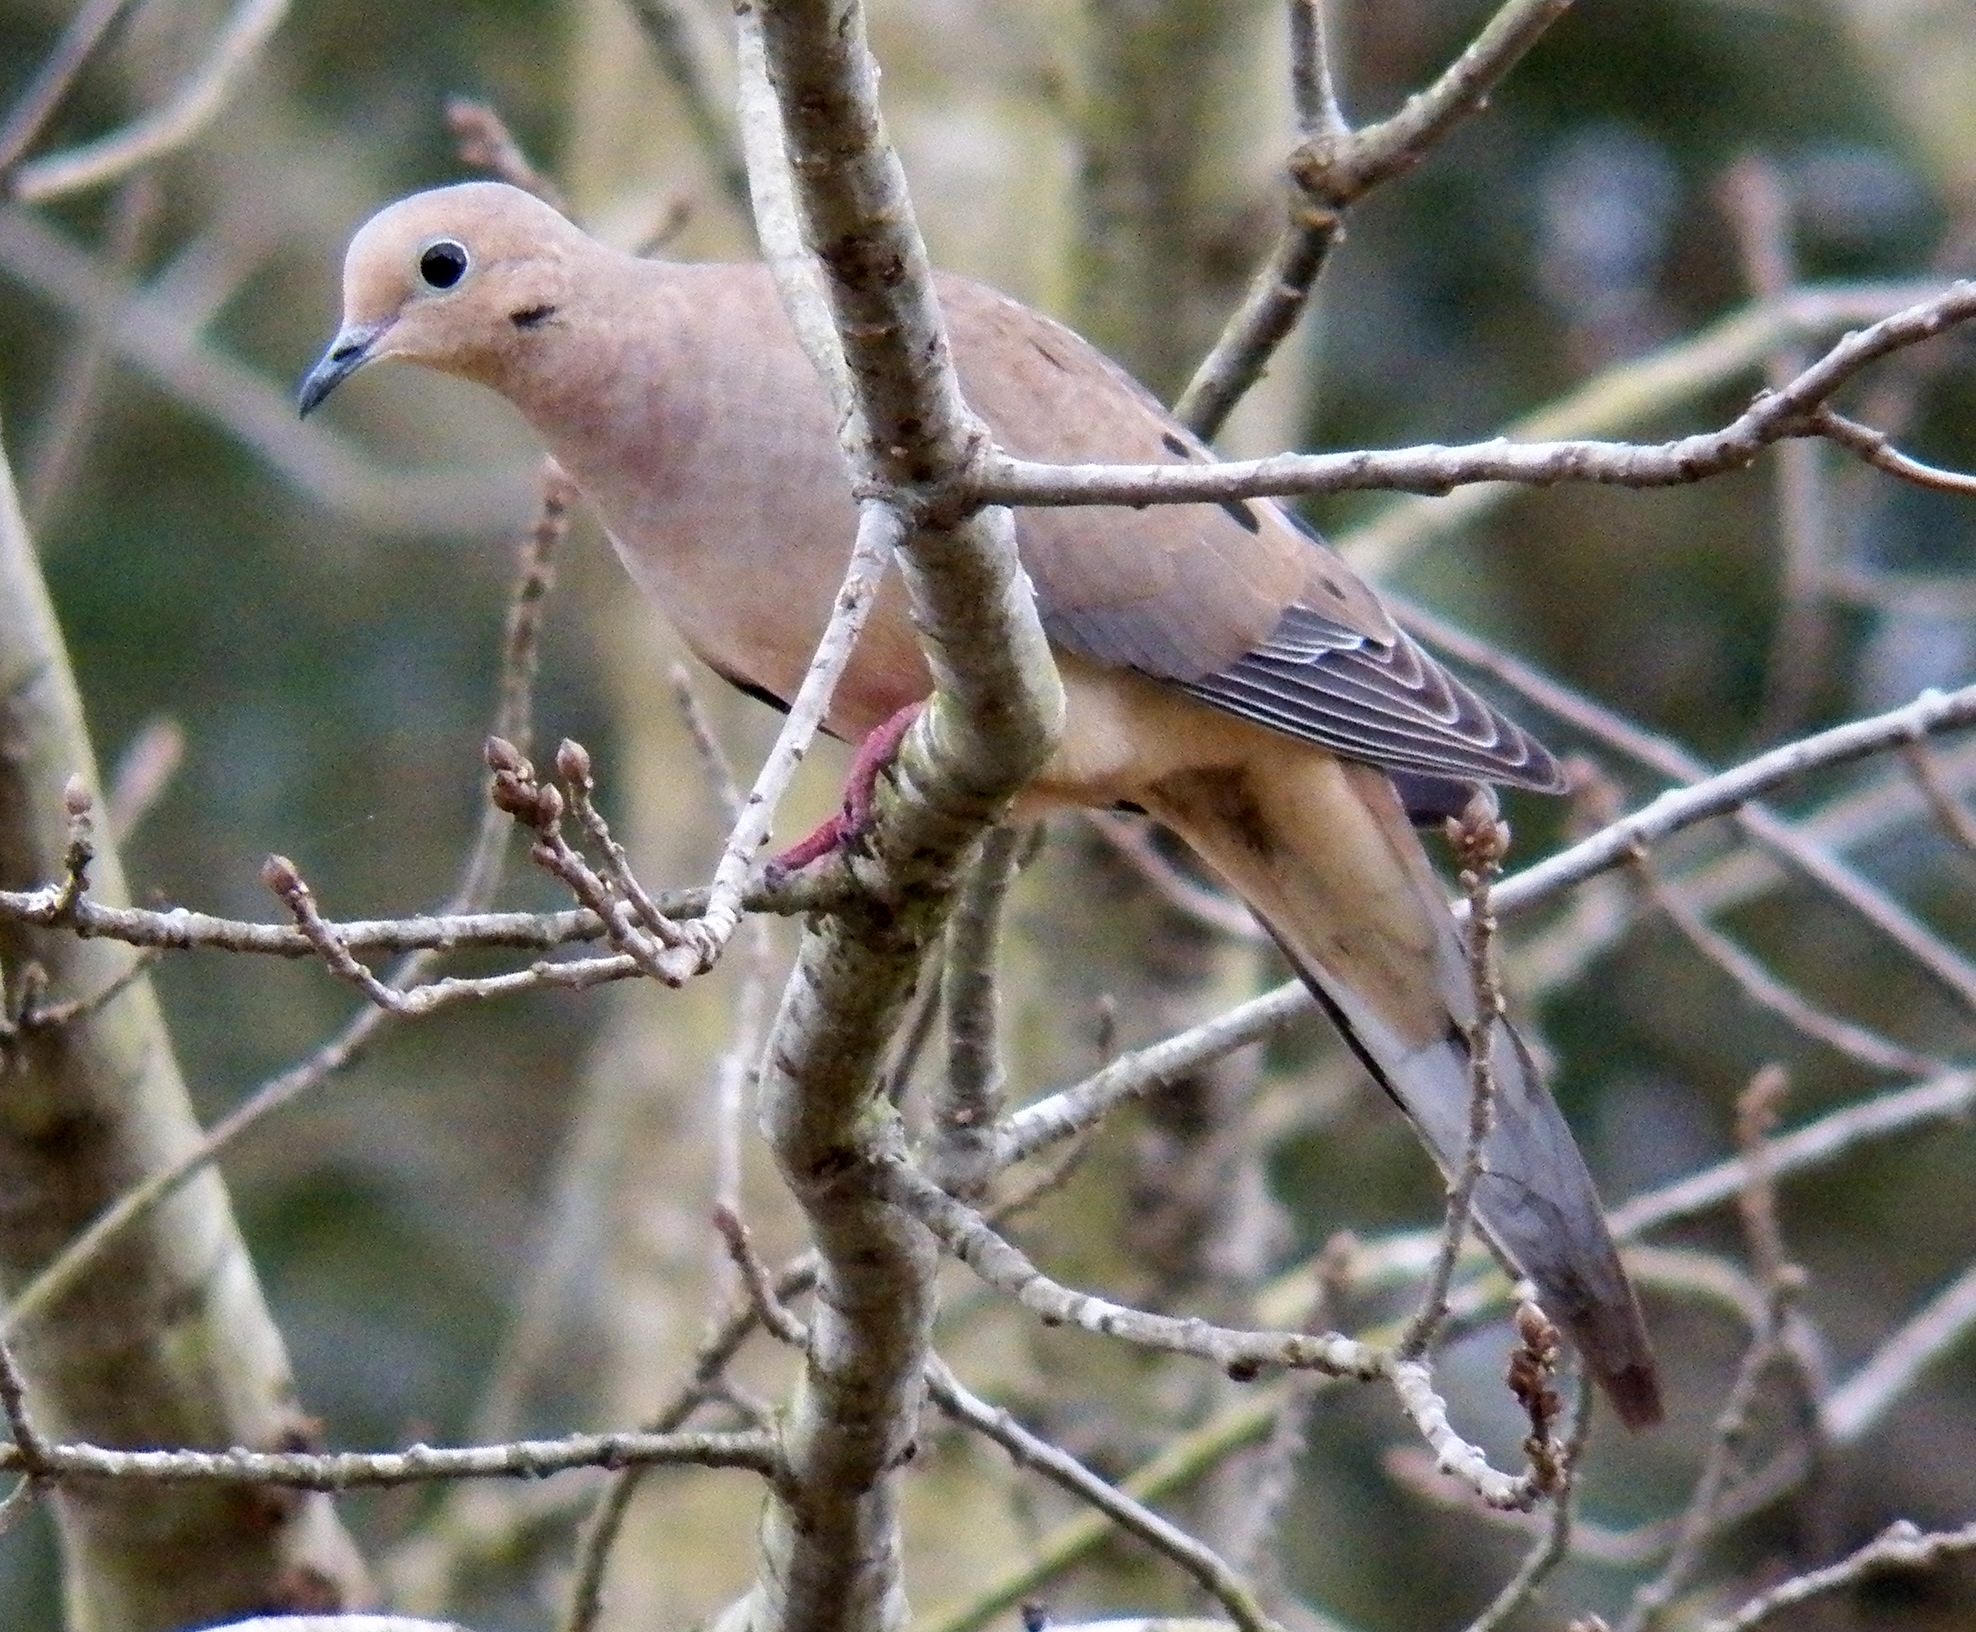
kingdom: Animalia
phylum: Chordata
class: Aves
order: Columbiformes
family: Columbidae
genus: Zenaida
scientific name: Zenaida macroura
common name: Mourning dove
